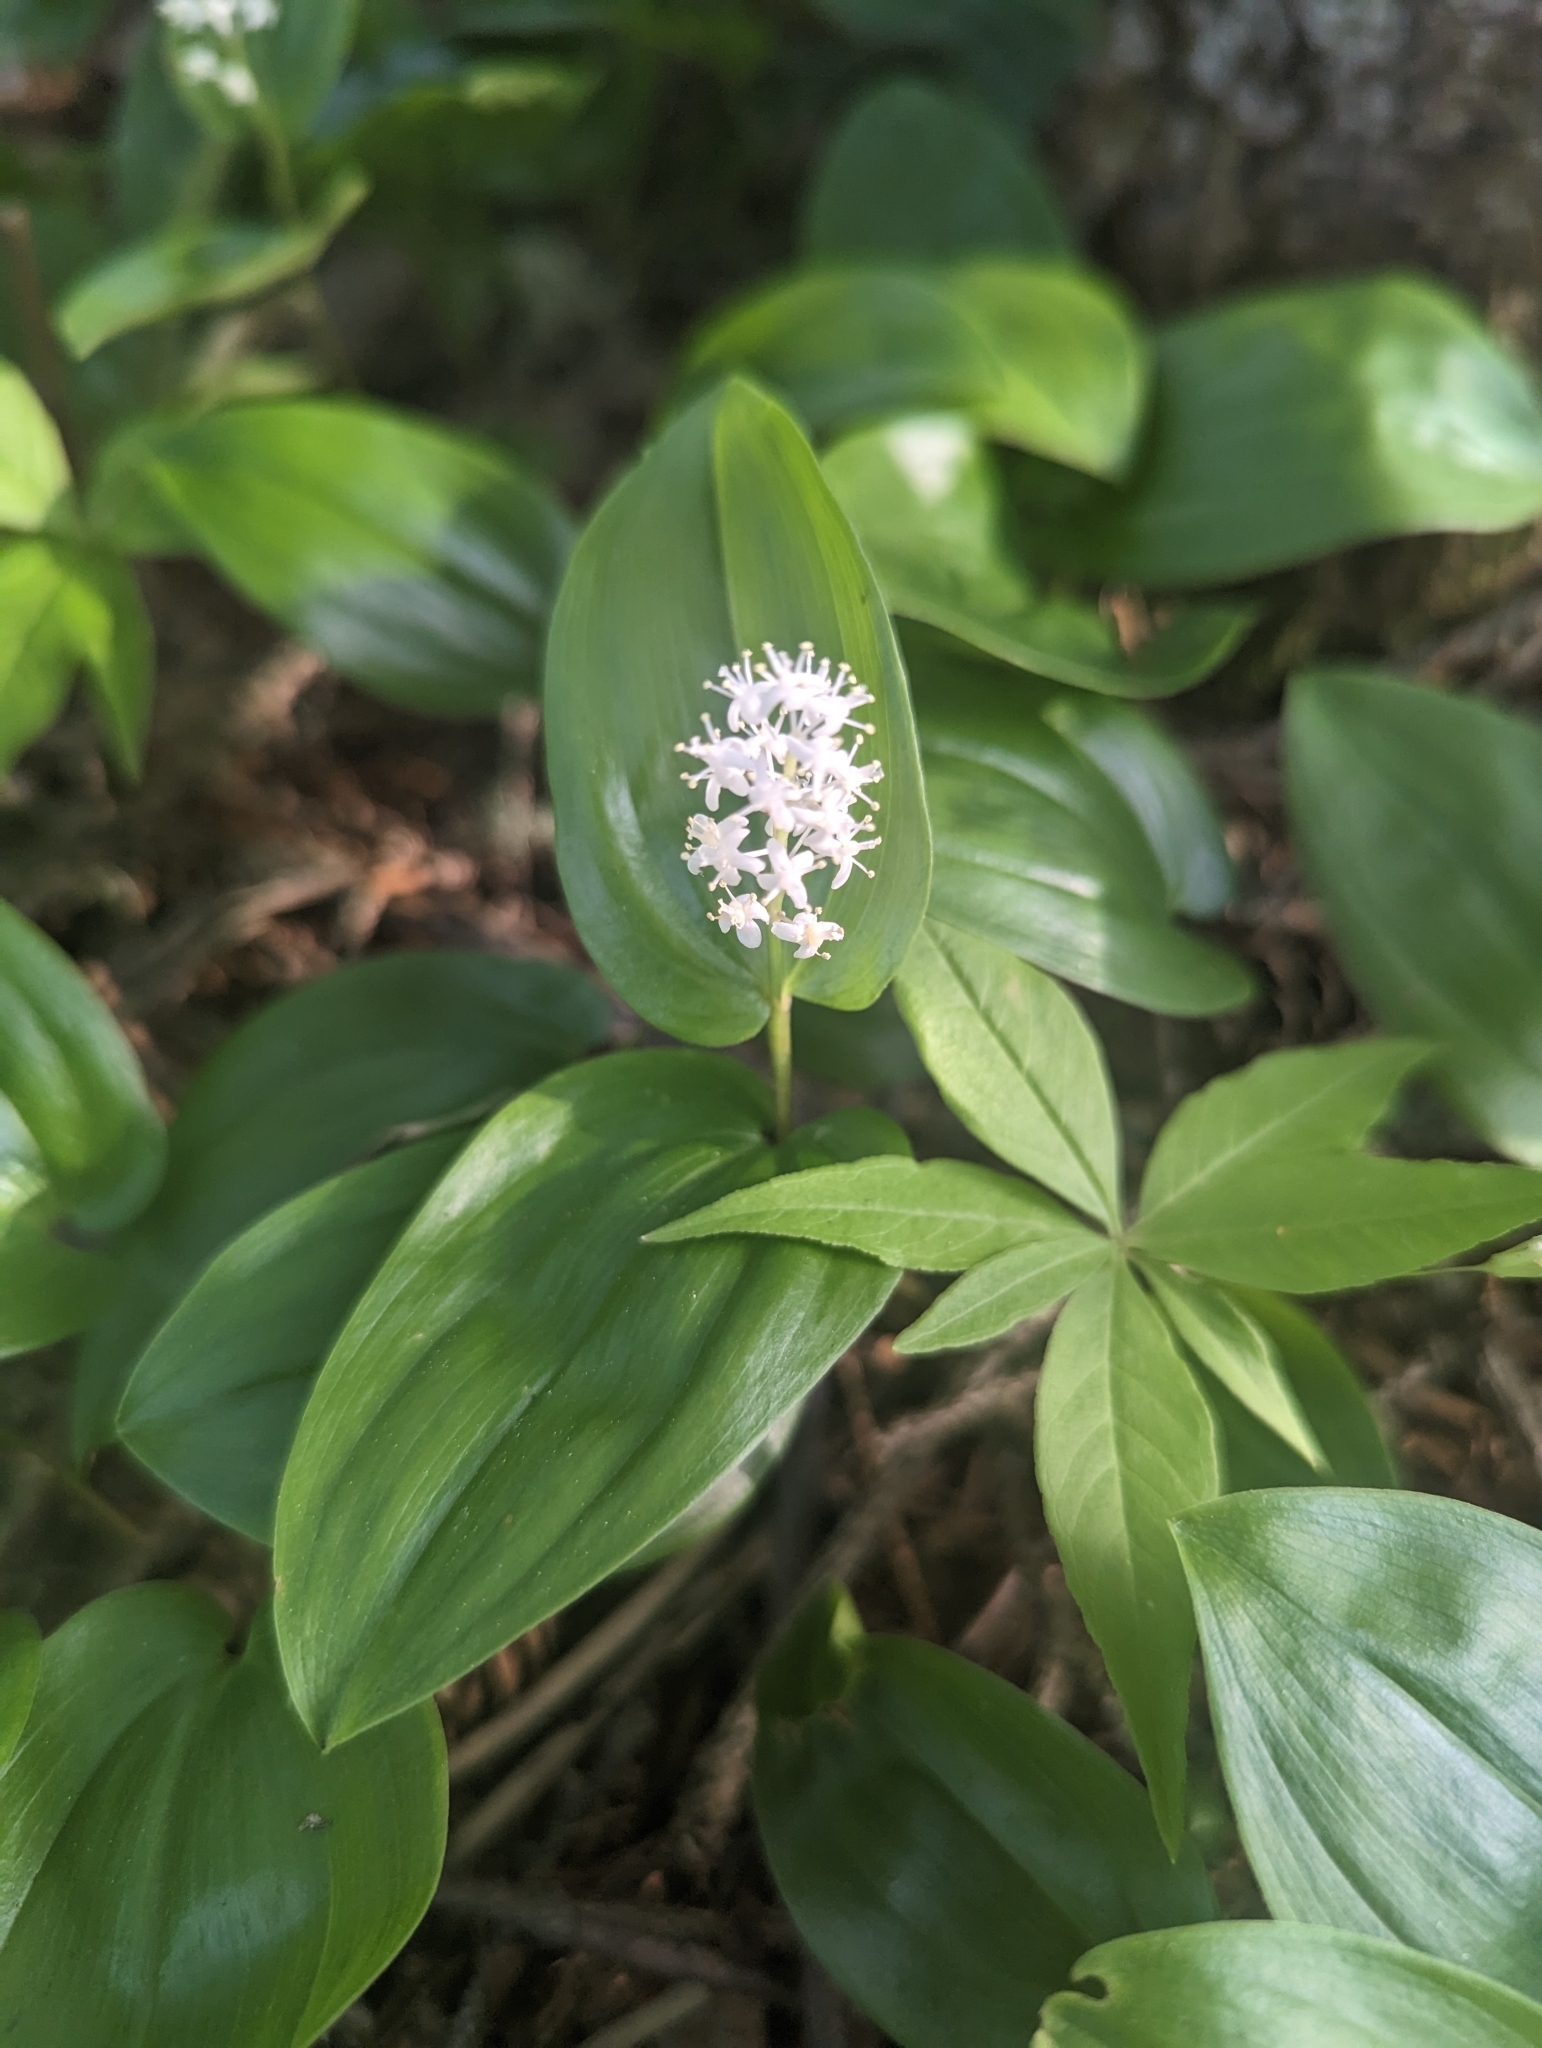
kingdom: Plantae
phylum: Tracheophyta
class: Liliopsida
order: Asparagales
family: Asparagaceae
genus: Maianthemum
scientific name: Maianthemum canadense
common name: False lily-of-the-valley
